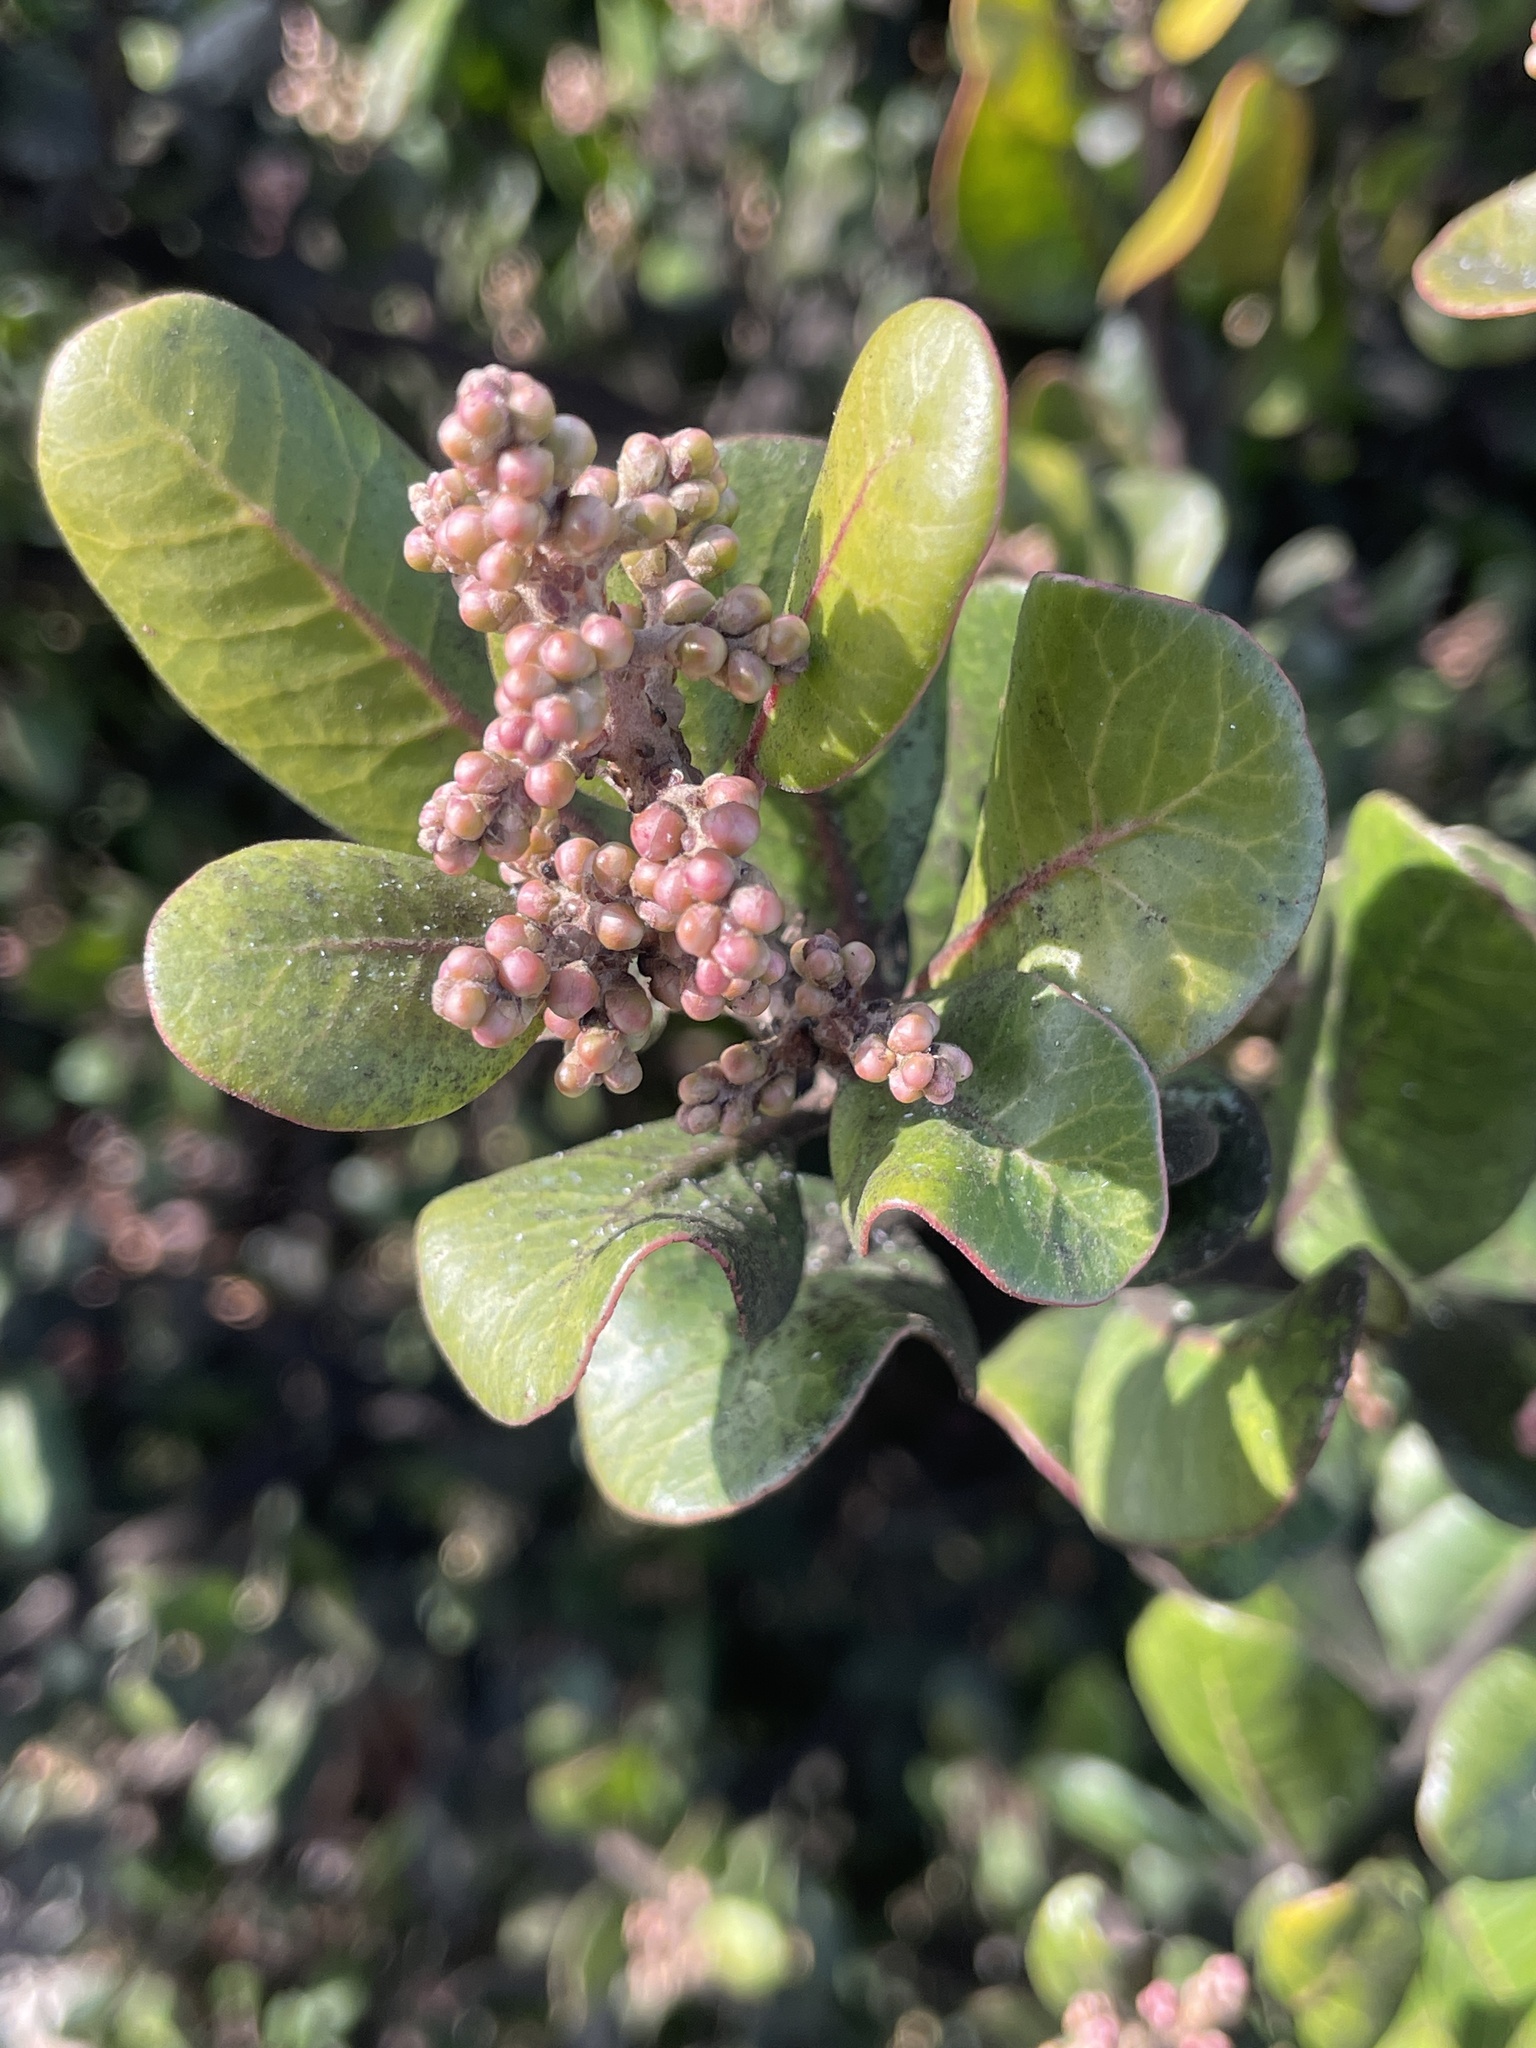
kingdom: Plantae
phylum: Tracheophyta
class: Magnoliopsida
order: Sapindales
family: Anacardiaceae
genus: Rhus
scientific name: Rhus integrifolia
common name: Lemonade sumac
